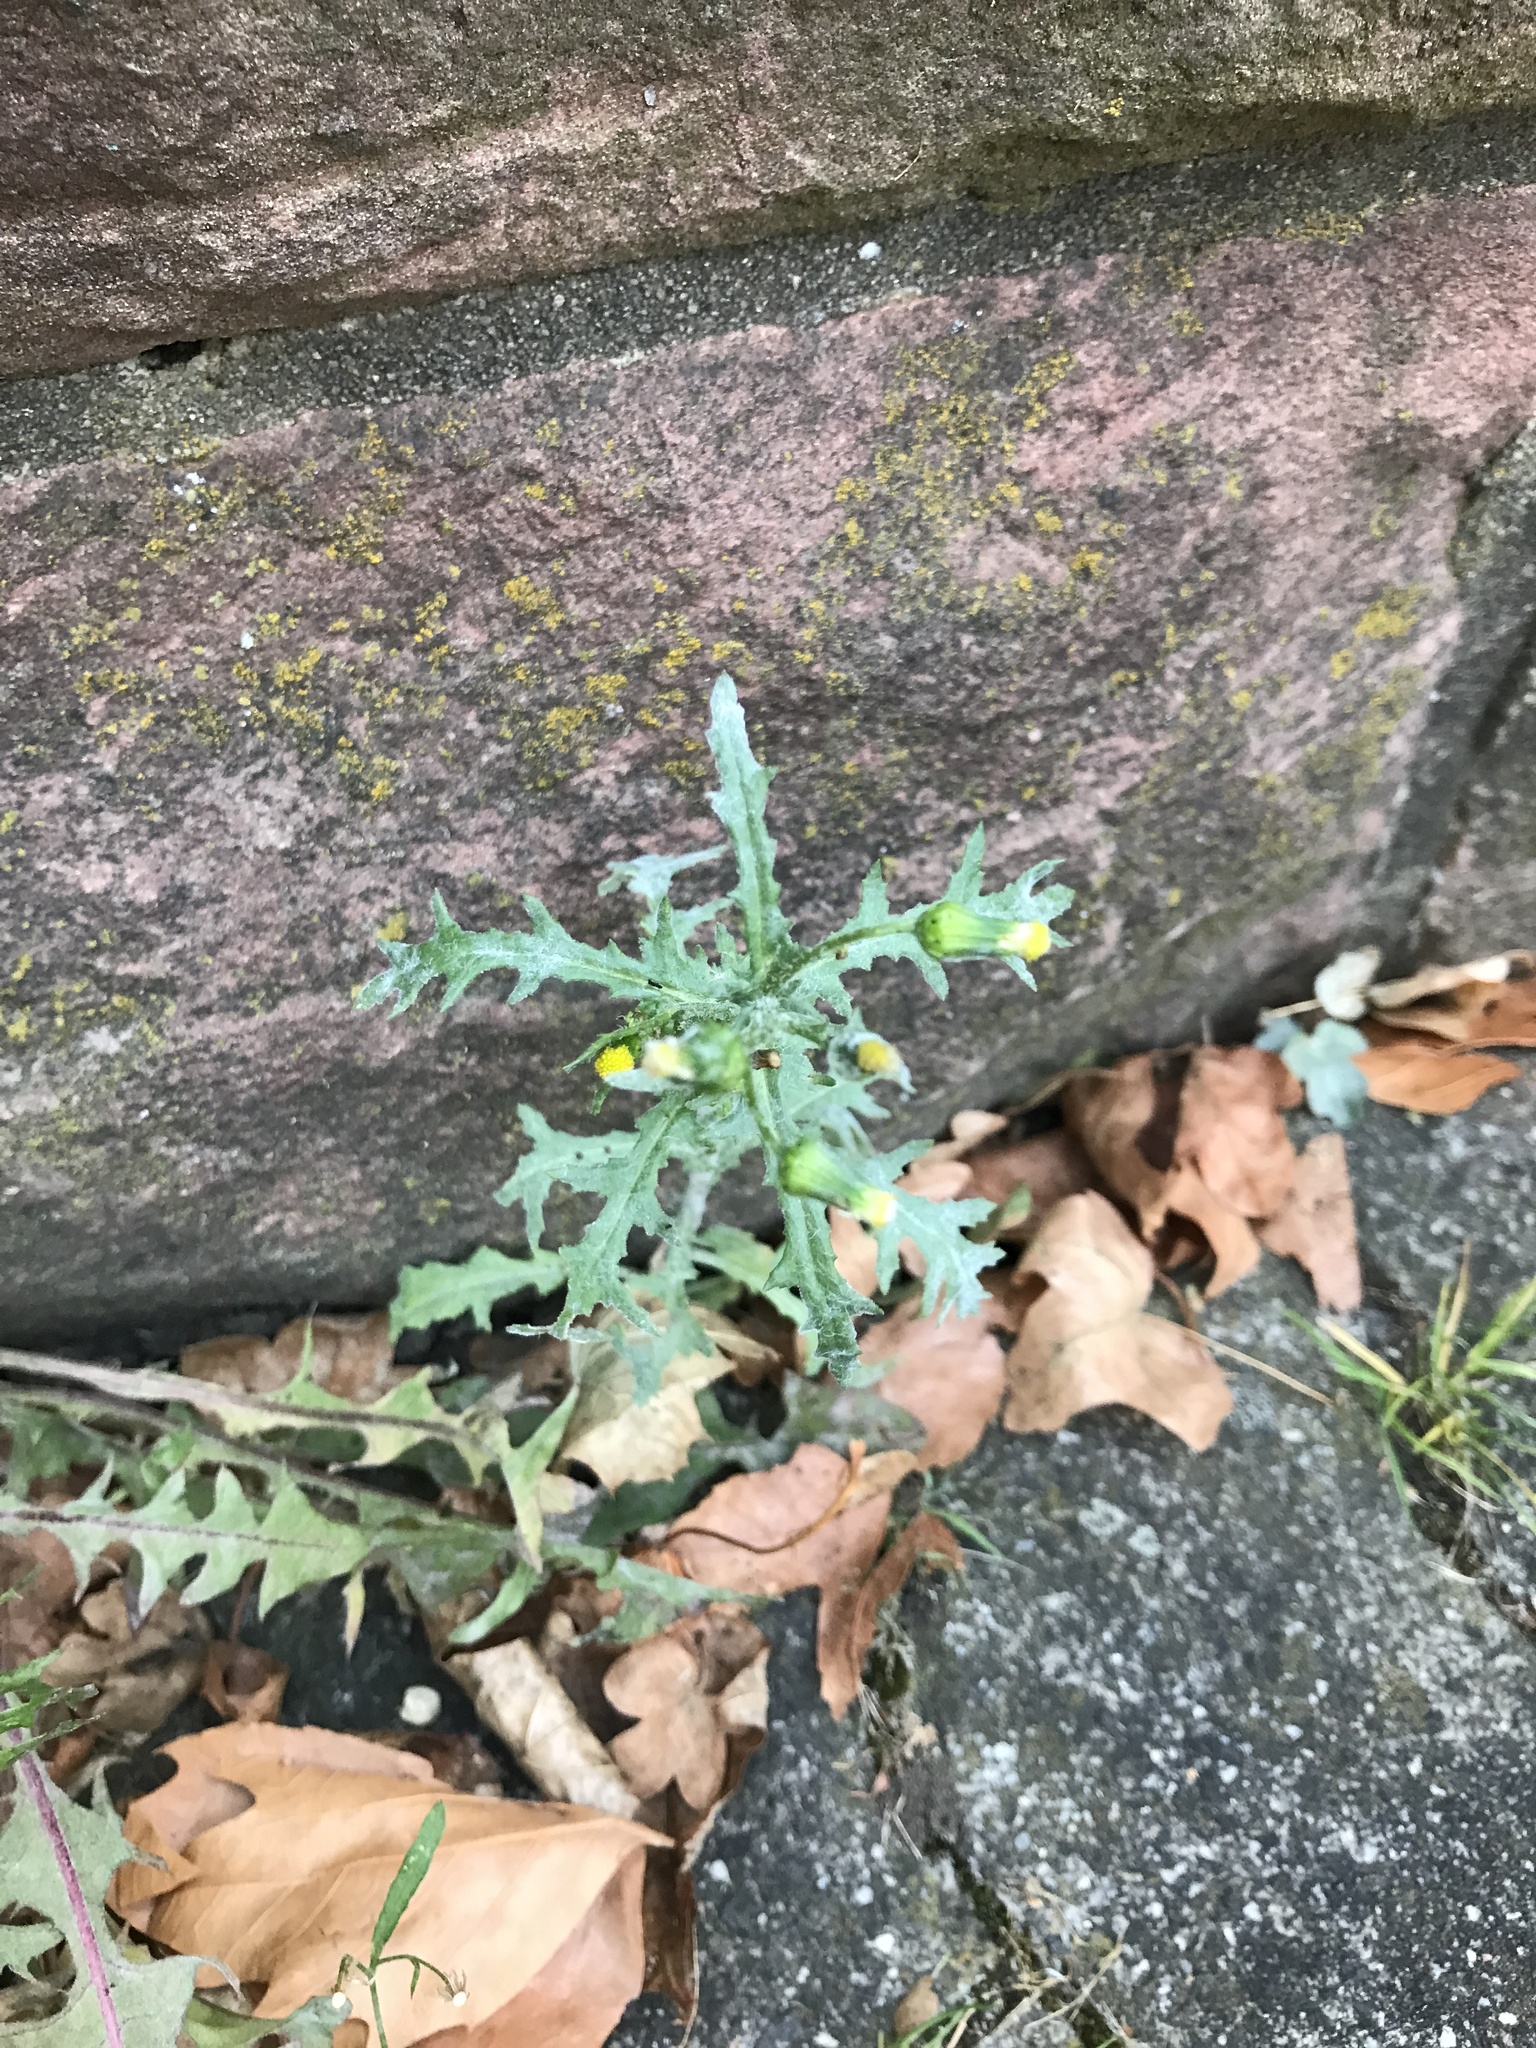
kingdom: Plantae
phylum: Tracheophyta
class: Magnoliopsida
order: Asterales
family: Asteraceae
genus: Senecio
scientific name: Senecio vulgaris
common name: Old-man-in-the-spring
